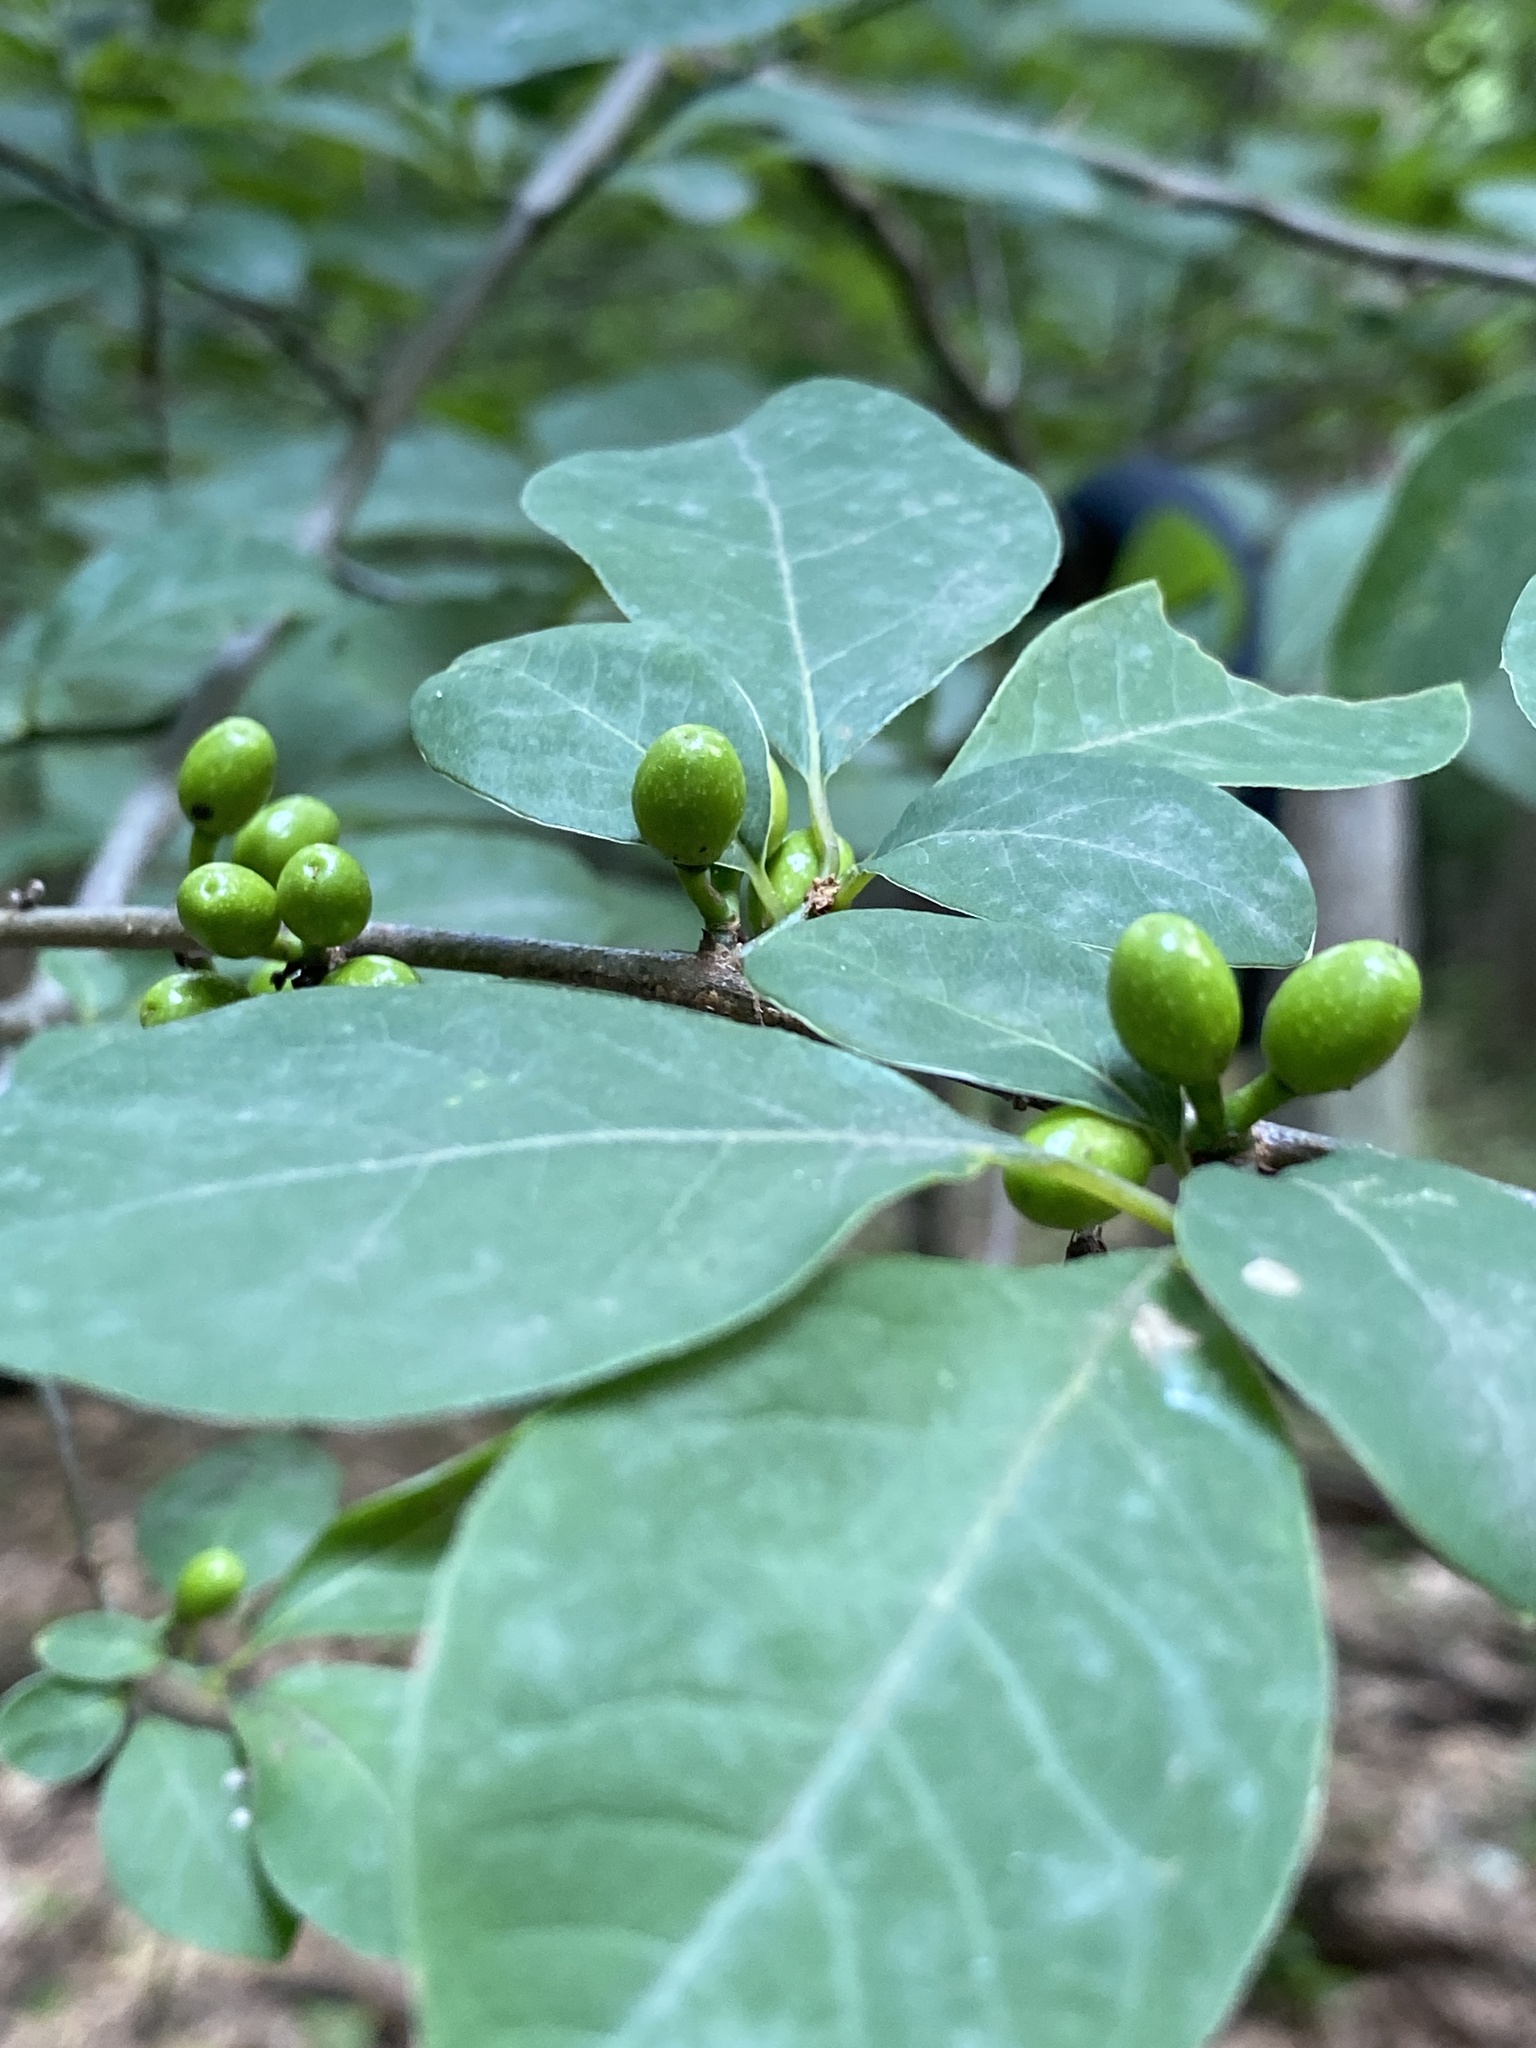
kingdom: Plantae
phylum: Tracheophyta
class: Magnoliopsida
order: Laurales
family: Lauraceae
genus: Lindera
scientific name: Lindera benzoin
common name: Spicebush
